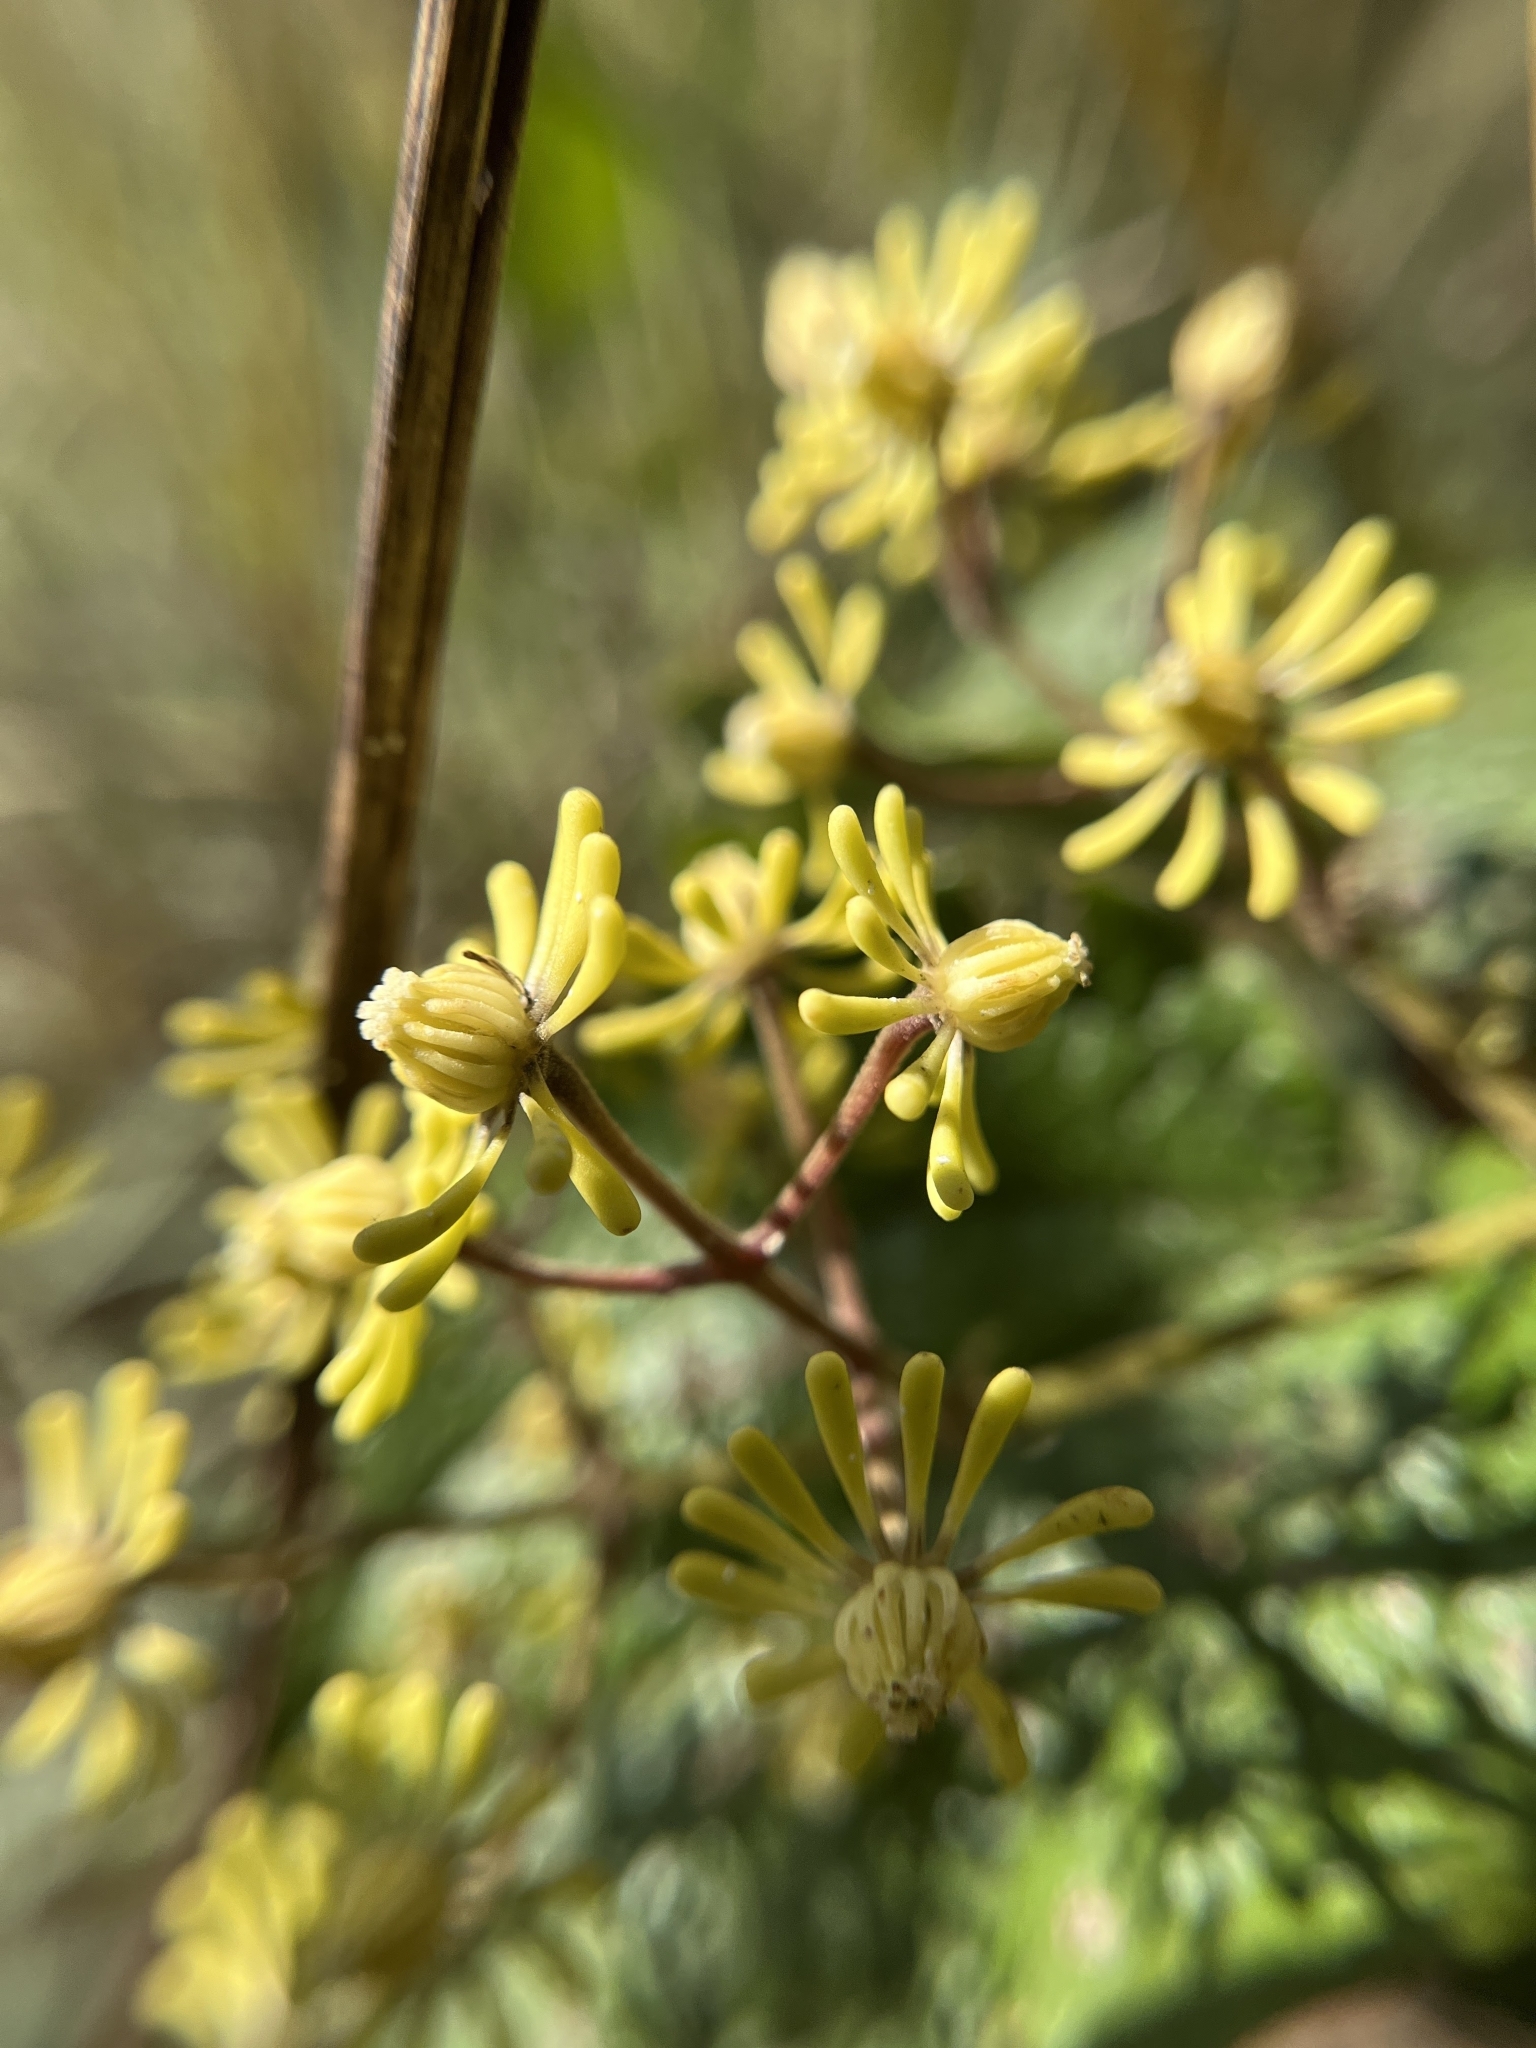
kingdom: Plantae
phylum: Tracheophyta
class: Magnoliopsida
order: Ranunculales
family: Ranunculaceae
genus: Clematis
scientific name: Clematis zeylanica
